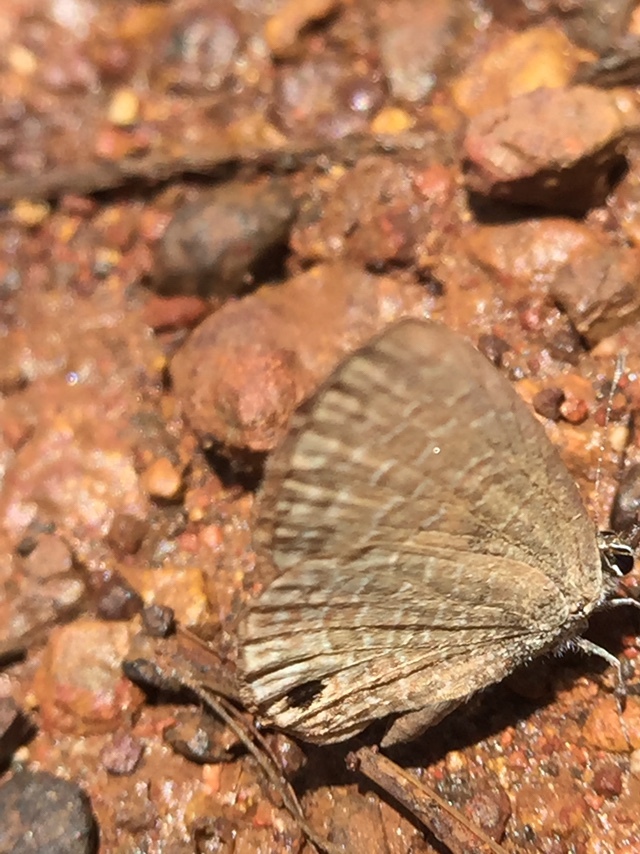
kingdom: Animalia
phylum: Arthropoda
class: Insecta
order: Lepidoptera
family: Lycaenidae
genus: Prosotas
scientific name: Prosotas dubiosa
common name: Tailless lineblue
